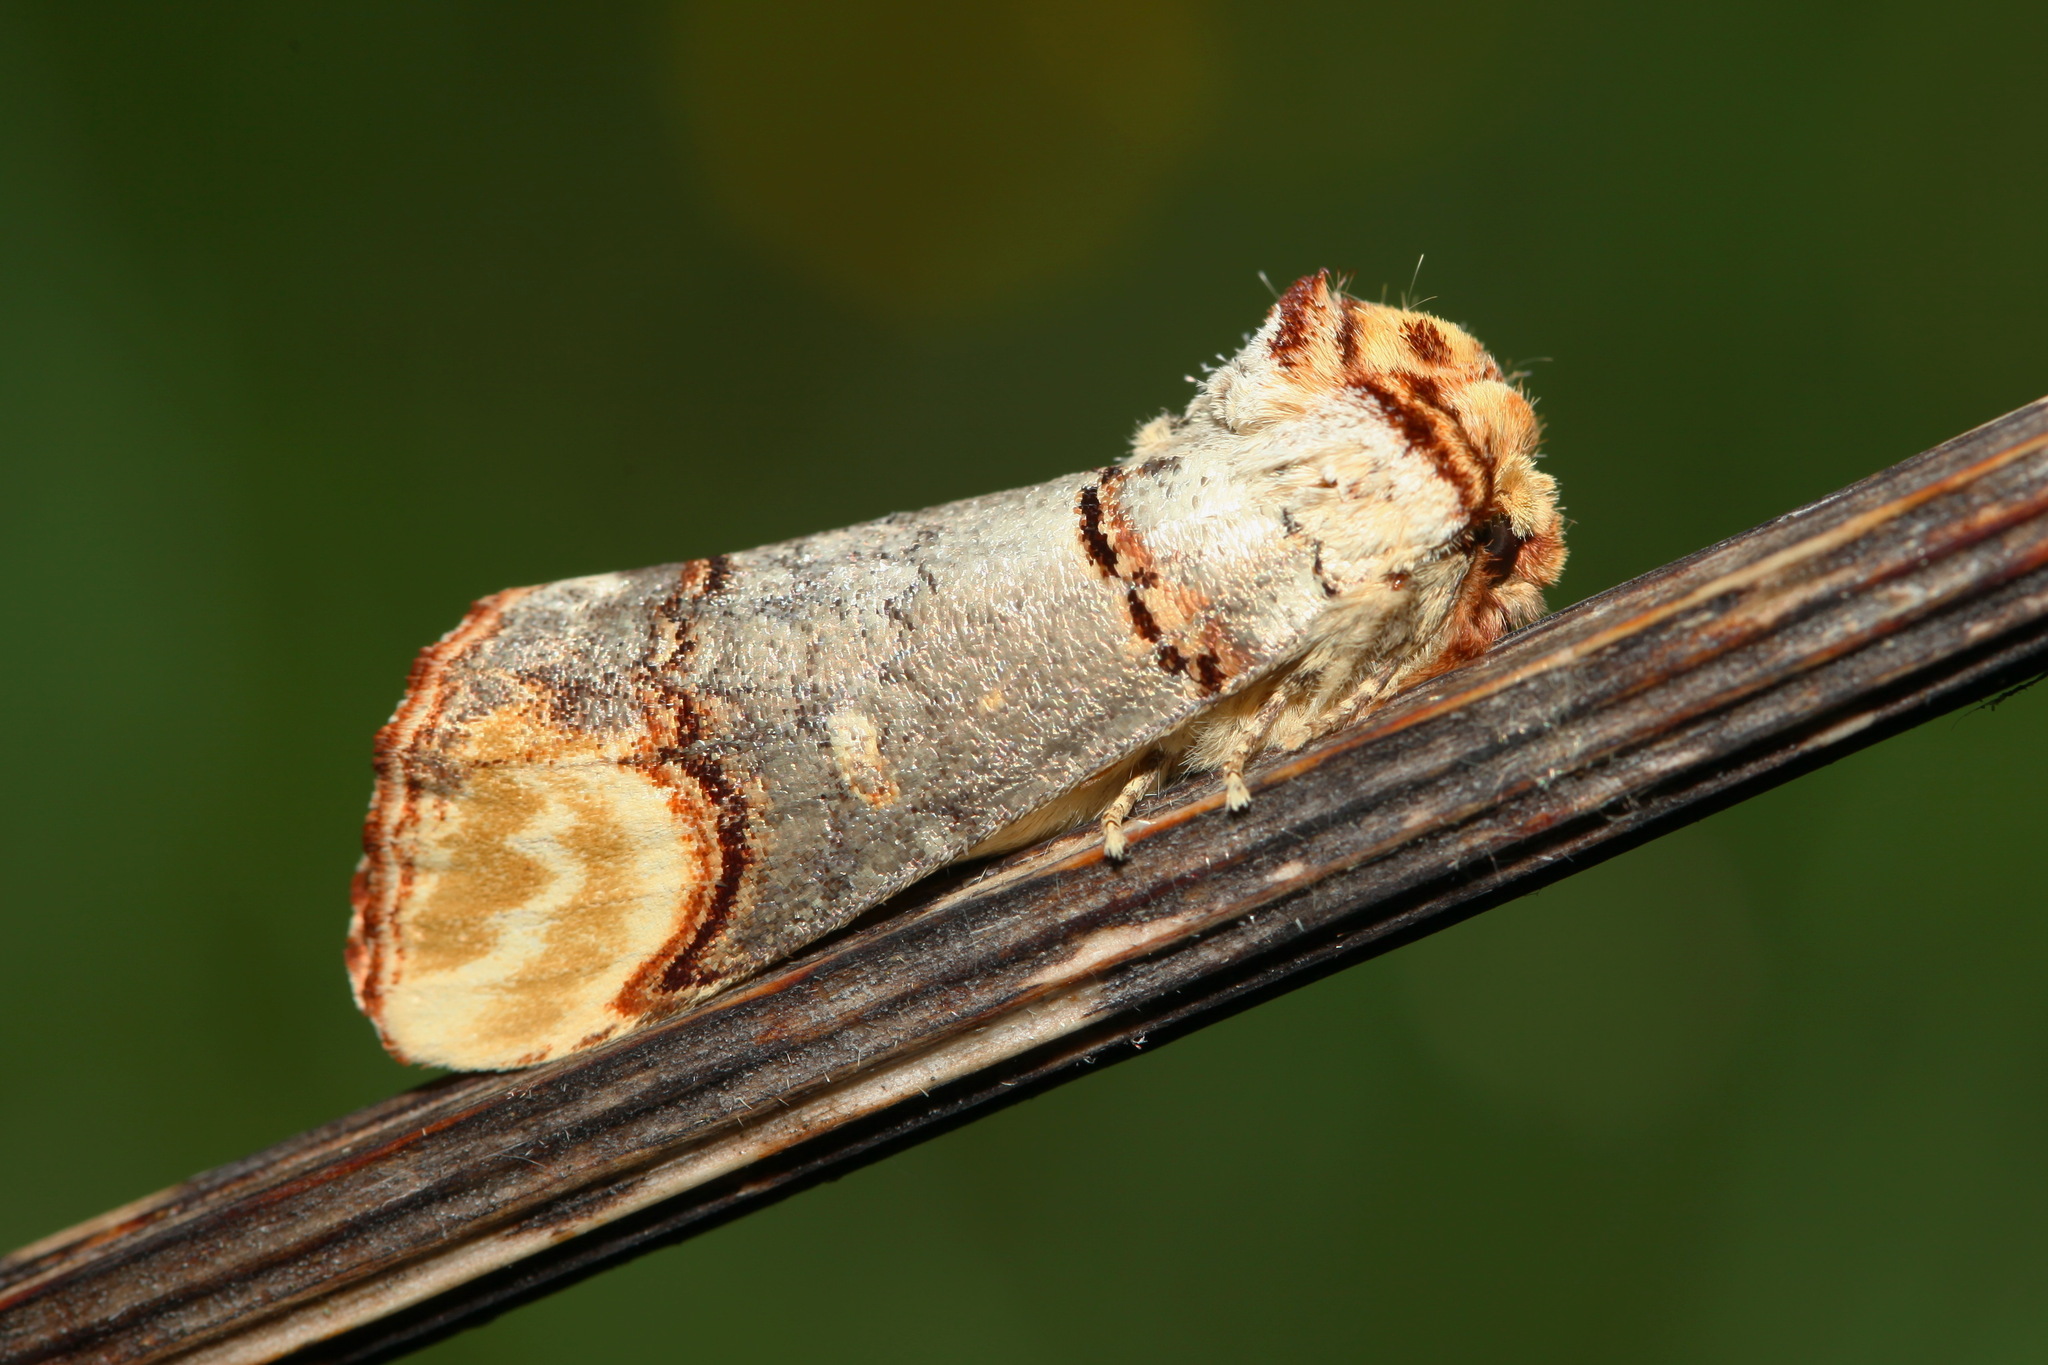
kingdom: Animalia
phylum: Arthropoda
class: Insecta
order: Lepidoptera
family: Notodontidae
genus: Phalera
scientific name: Phalera bucephala
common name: Buff-tip
